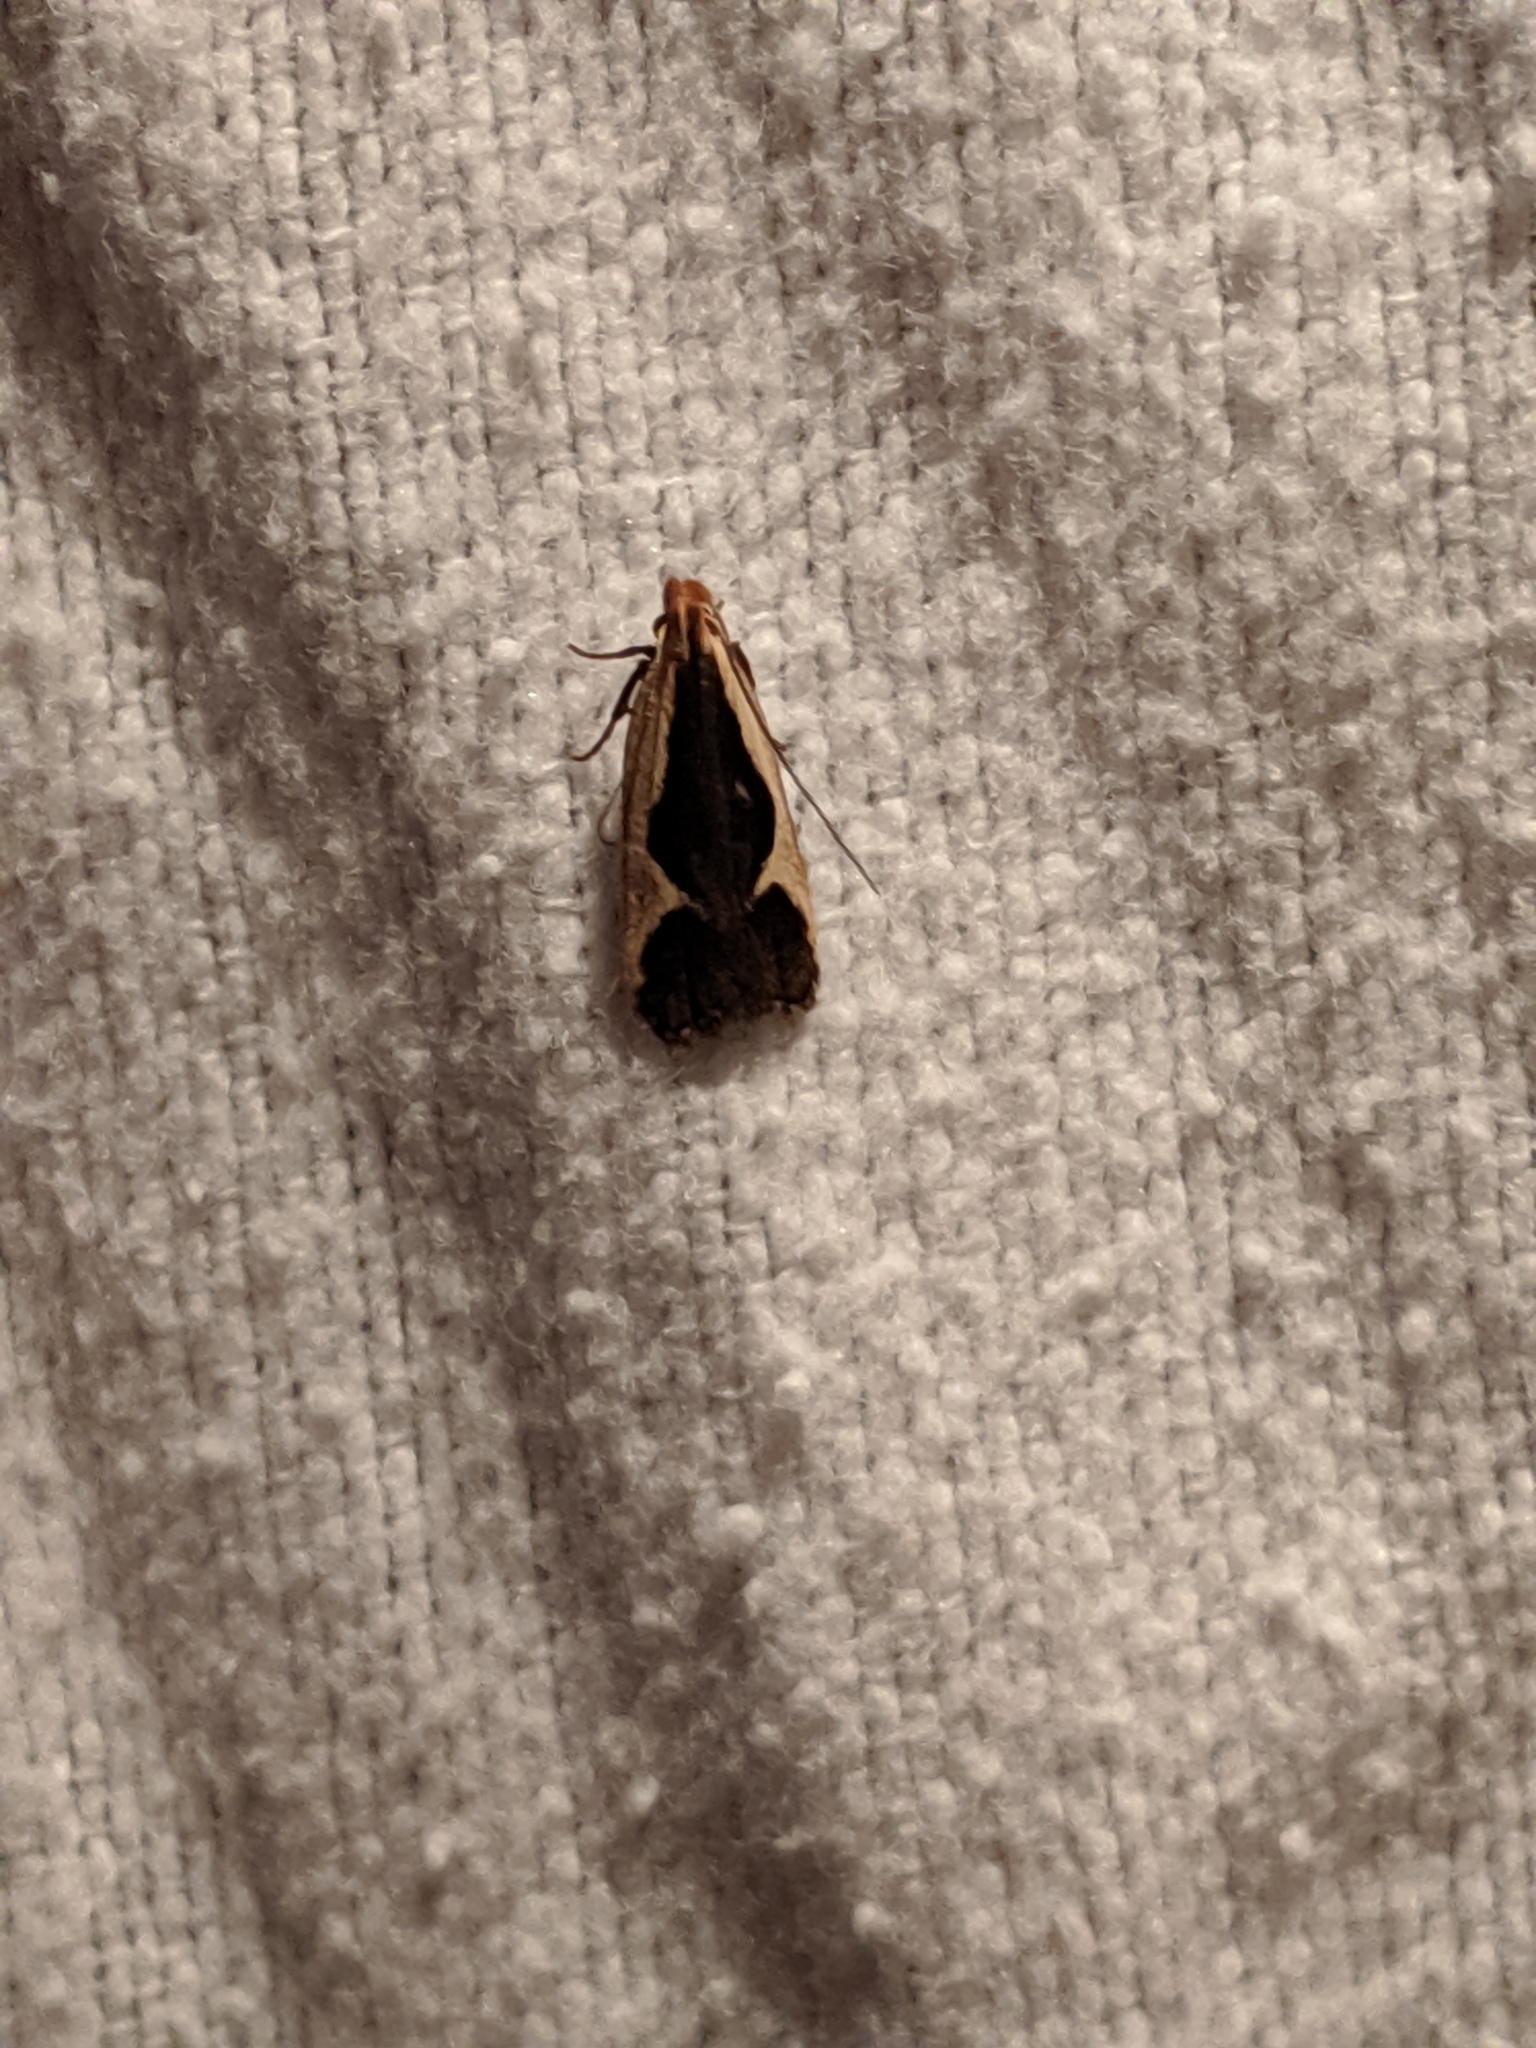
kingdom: Animalia
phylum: Arthropoda
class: Insecta
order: Lepidoptera
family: Gelechiidae
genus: Dichomeris
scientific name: Dichomeris flavocostella
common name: Cream-edged dichomeris moth
